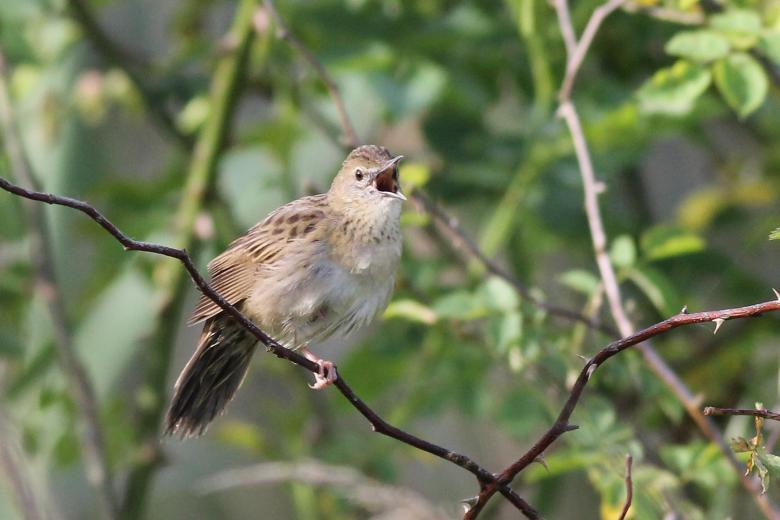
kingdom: Animalia
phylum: Chordata
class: Aves
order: Passeriformes
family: Locustellidae
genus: Locustella
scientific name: Locustella naevia
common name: Common grasshopper warbler
